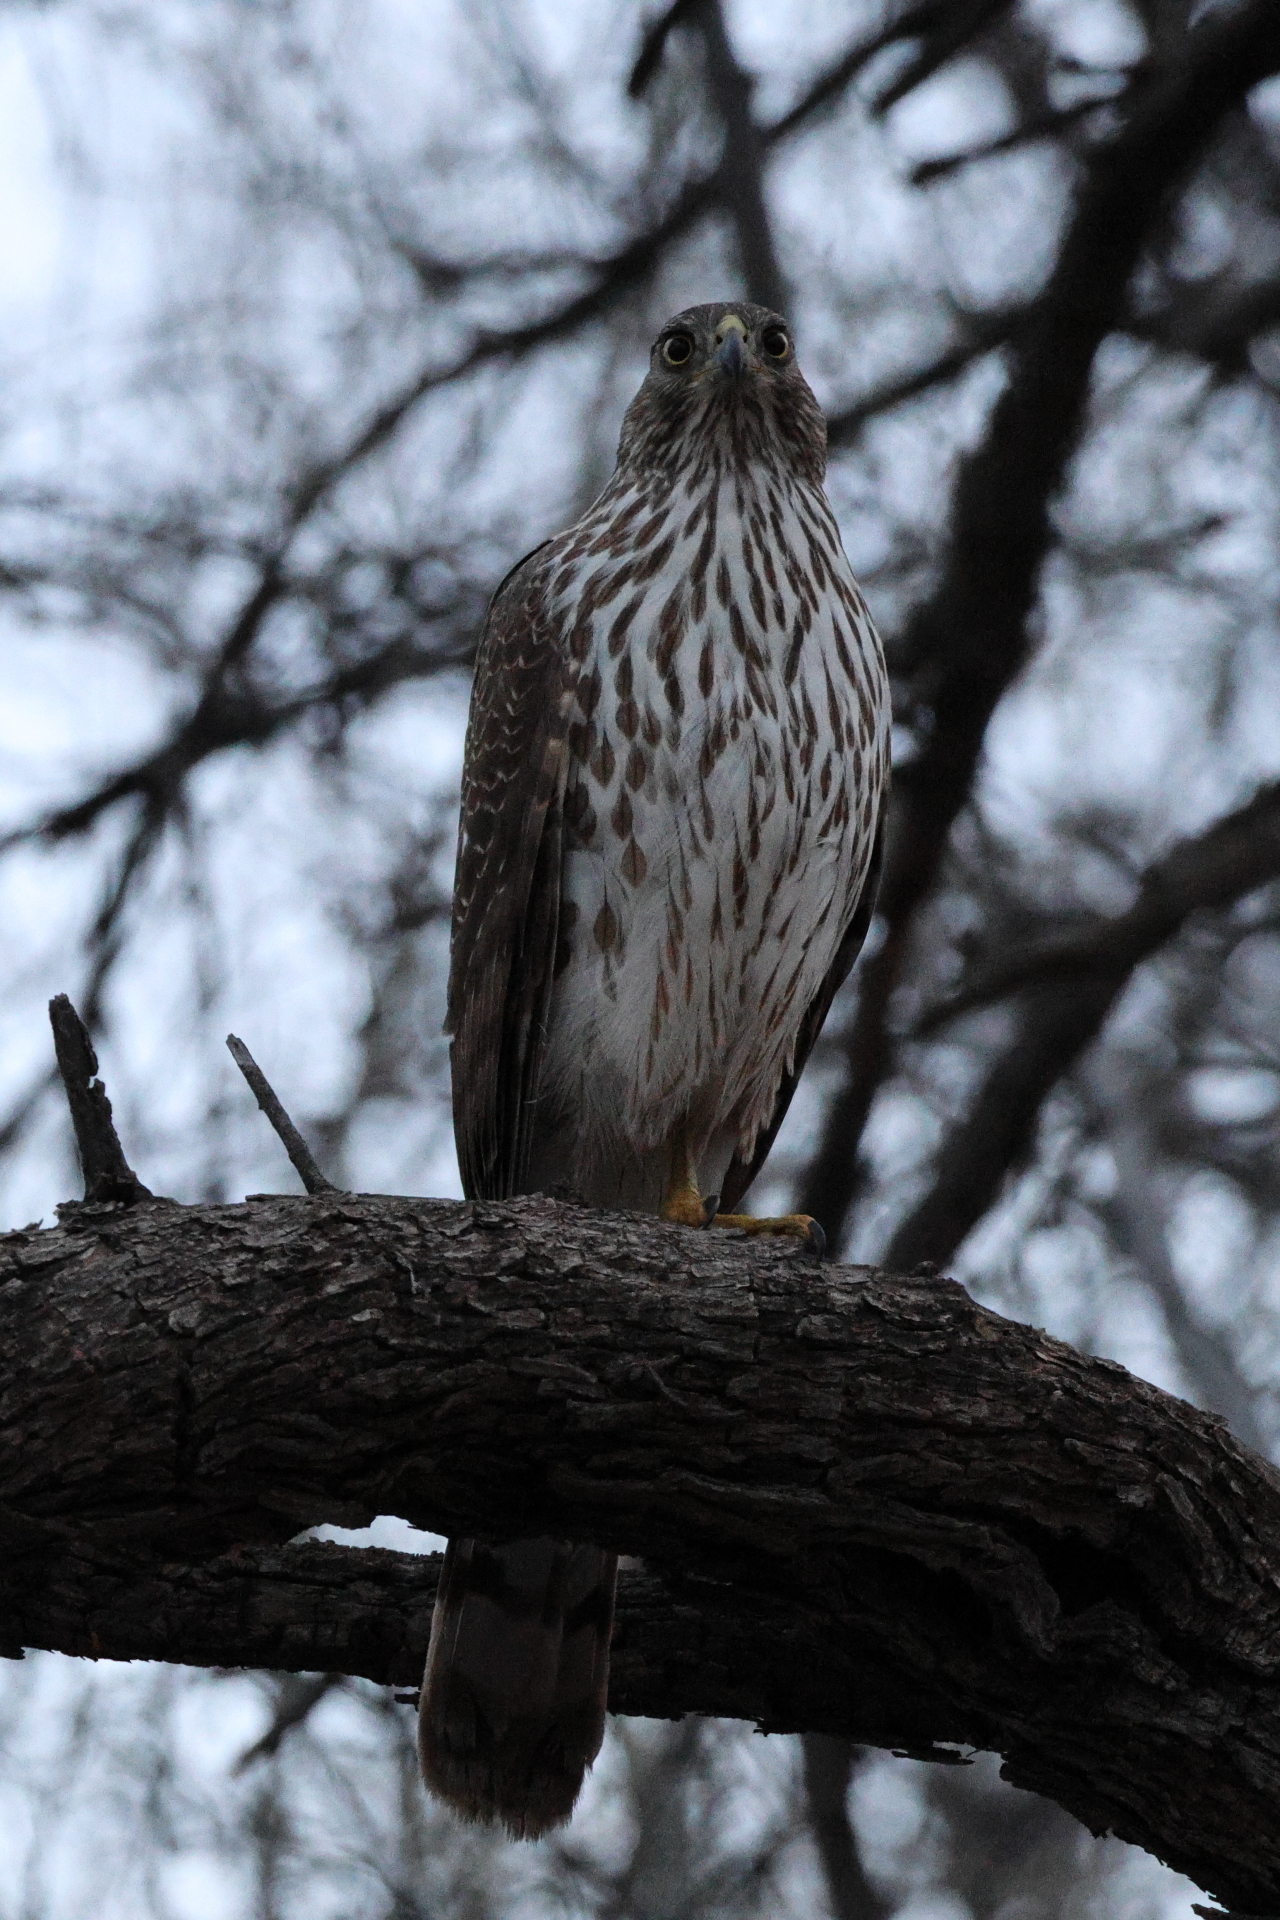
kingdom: Animalia
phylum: Chordata
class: Aves
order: Accipitriformes
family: Accipitridae
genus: Accipiter
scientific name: Accipiter cooperii
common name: Cooper's hawk
